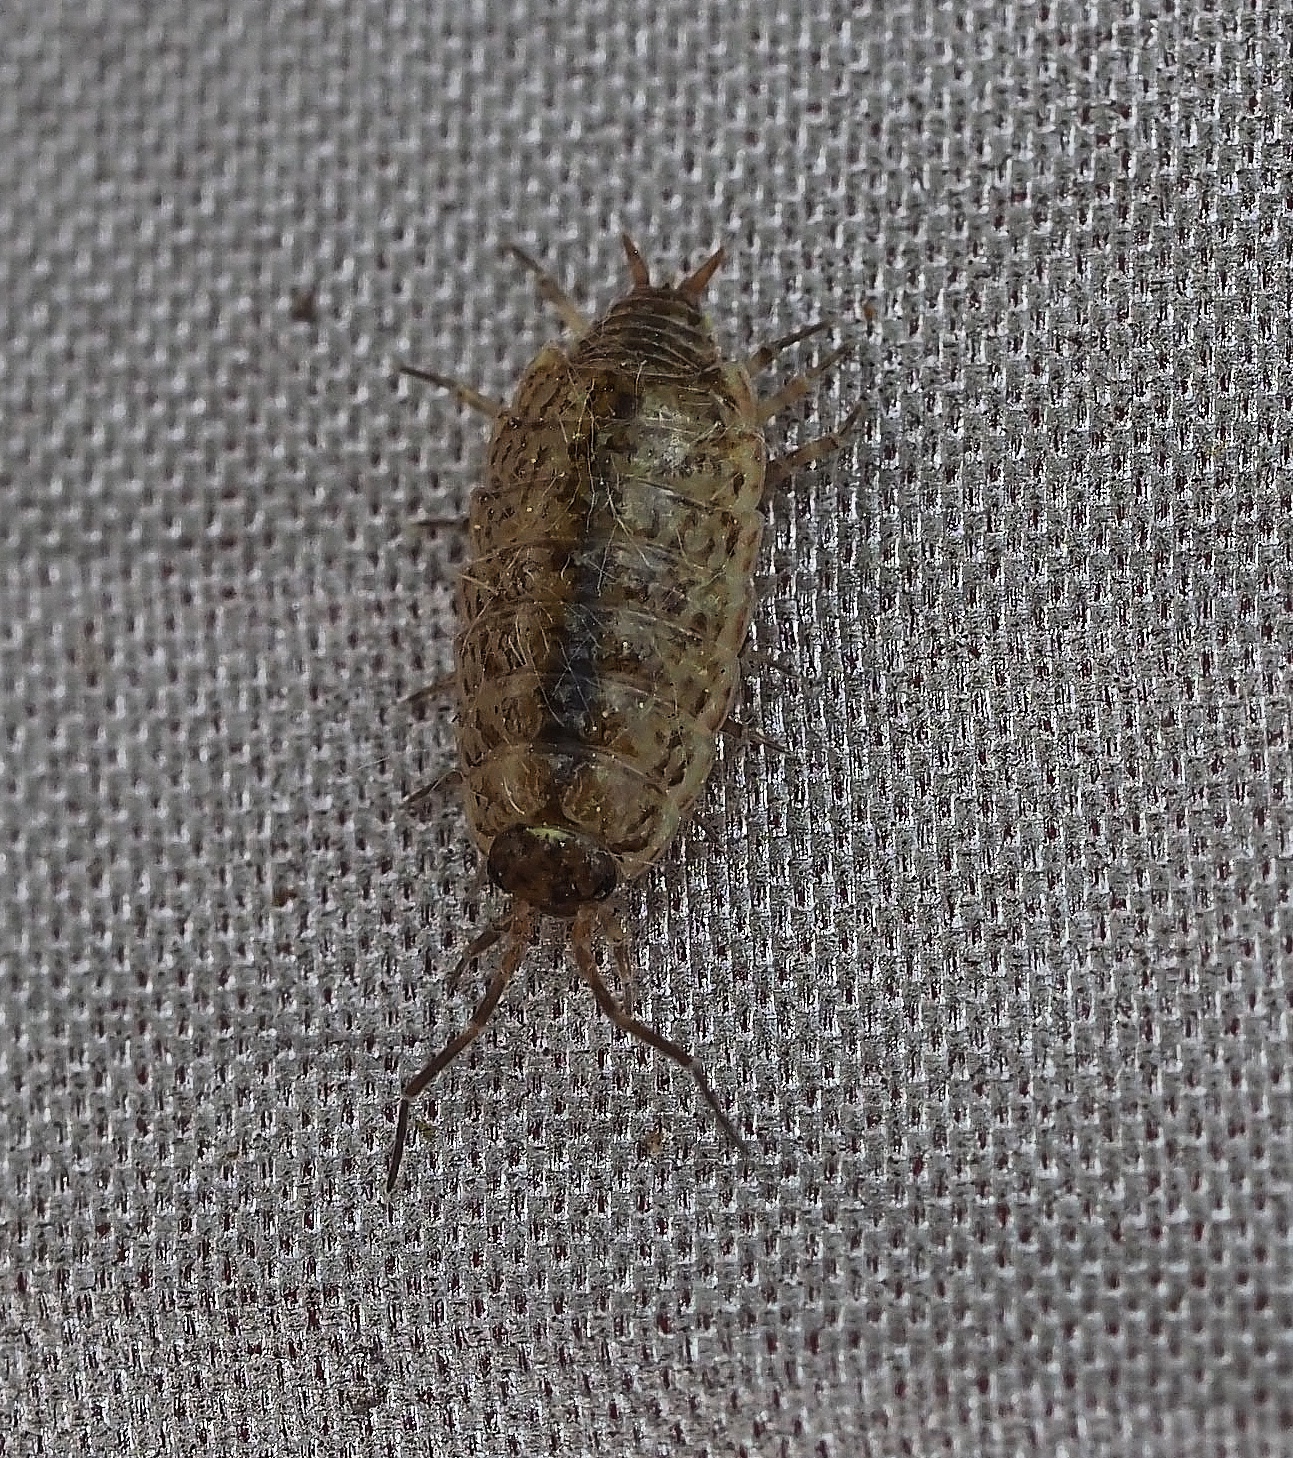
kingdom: Animalia
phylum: Arthropoda
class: Malacostraca
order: Isopoda
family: Philosciidae
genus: Philoscia
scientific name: Philoscia muscorum
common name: Common striped woodlouse
